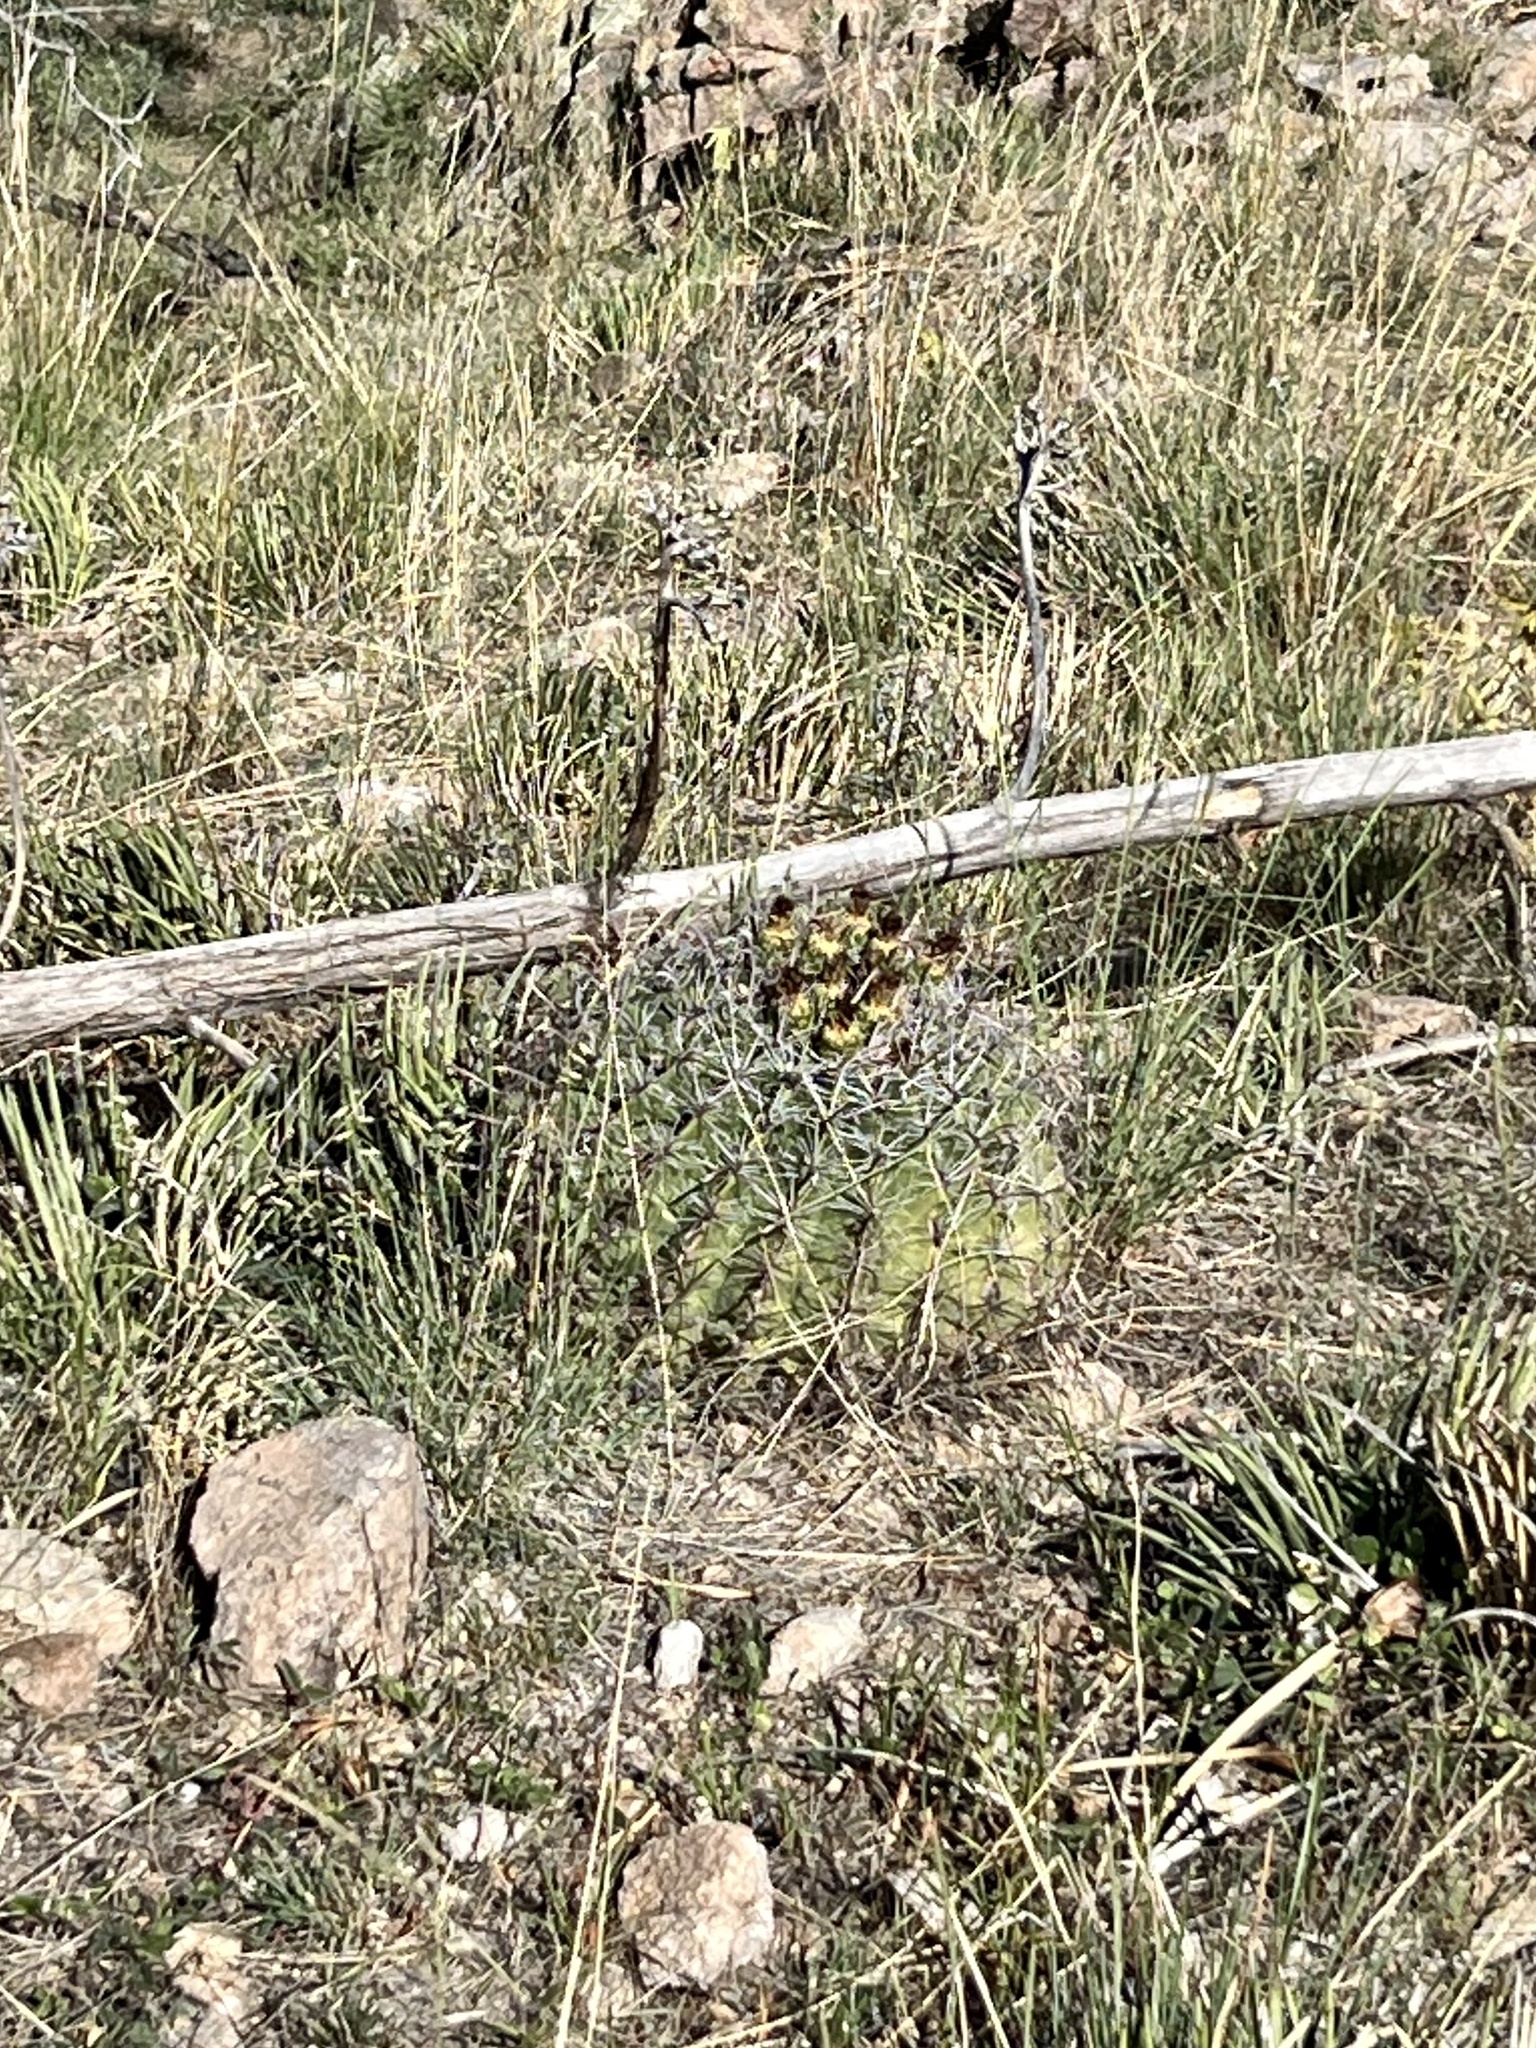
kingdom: Plantae
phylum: Tracheophyta
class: Magnoliopsida
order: Caryophyllales
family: Cactaceae
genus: Ferocactus
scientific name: Ferocactus wislizeni
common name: Candy barrel cactus
